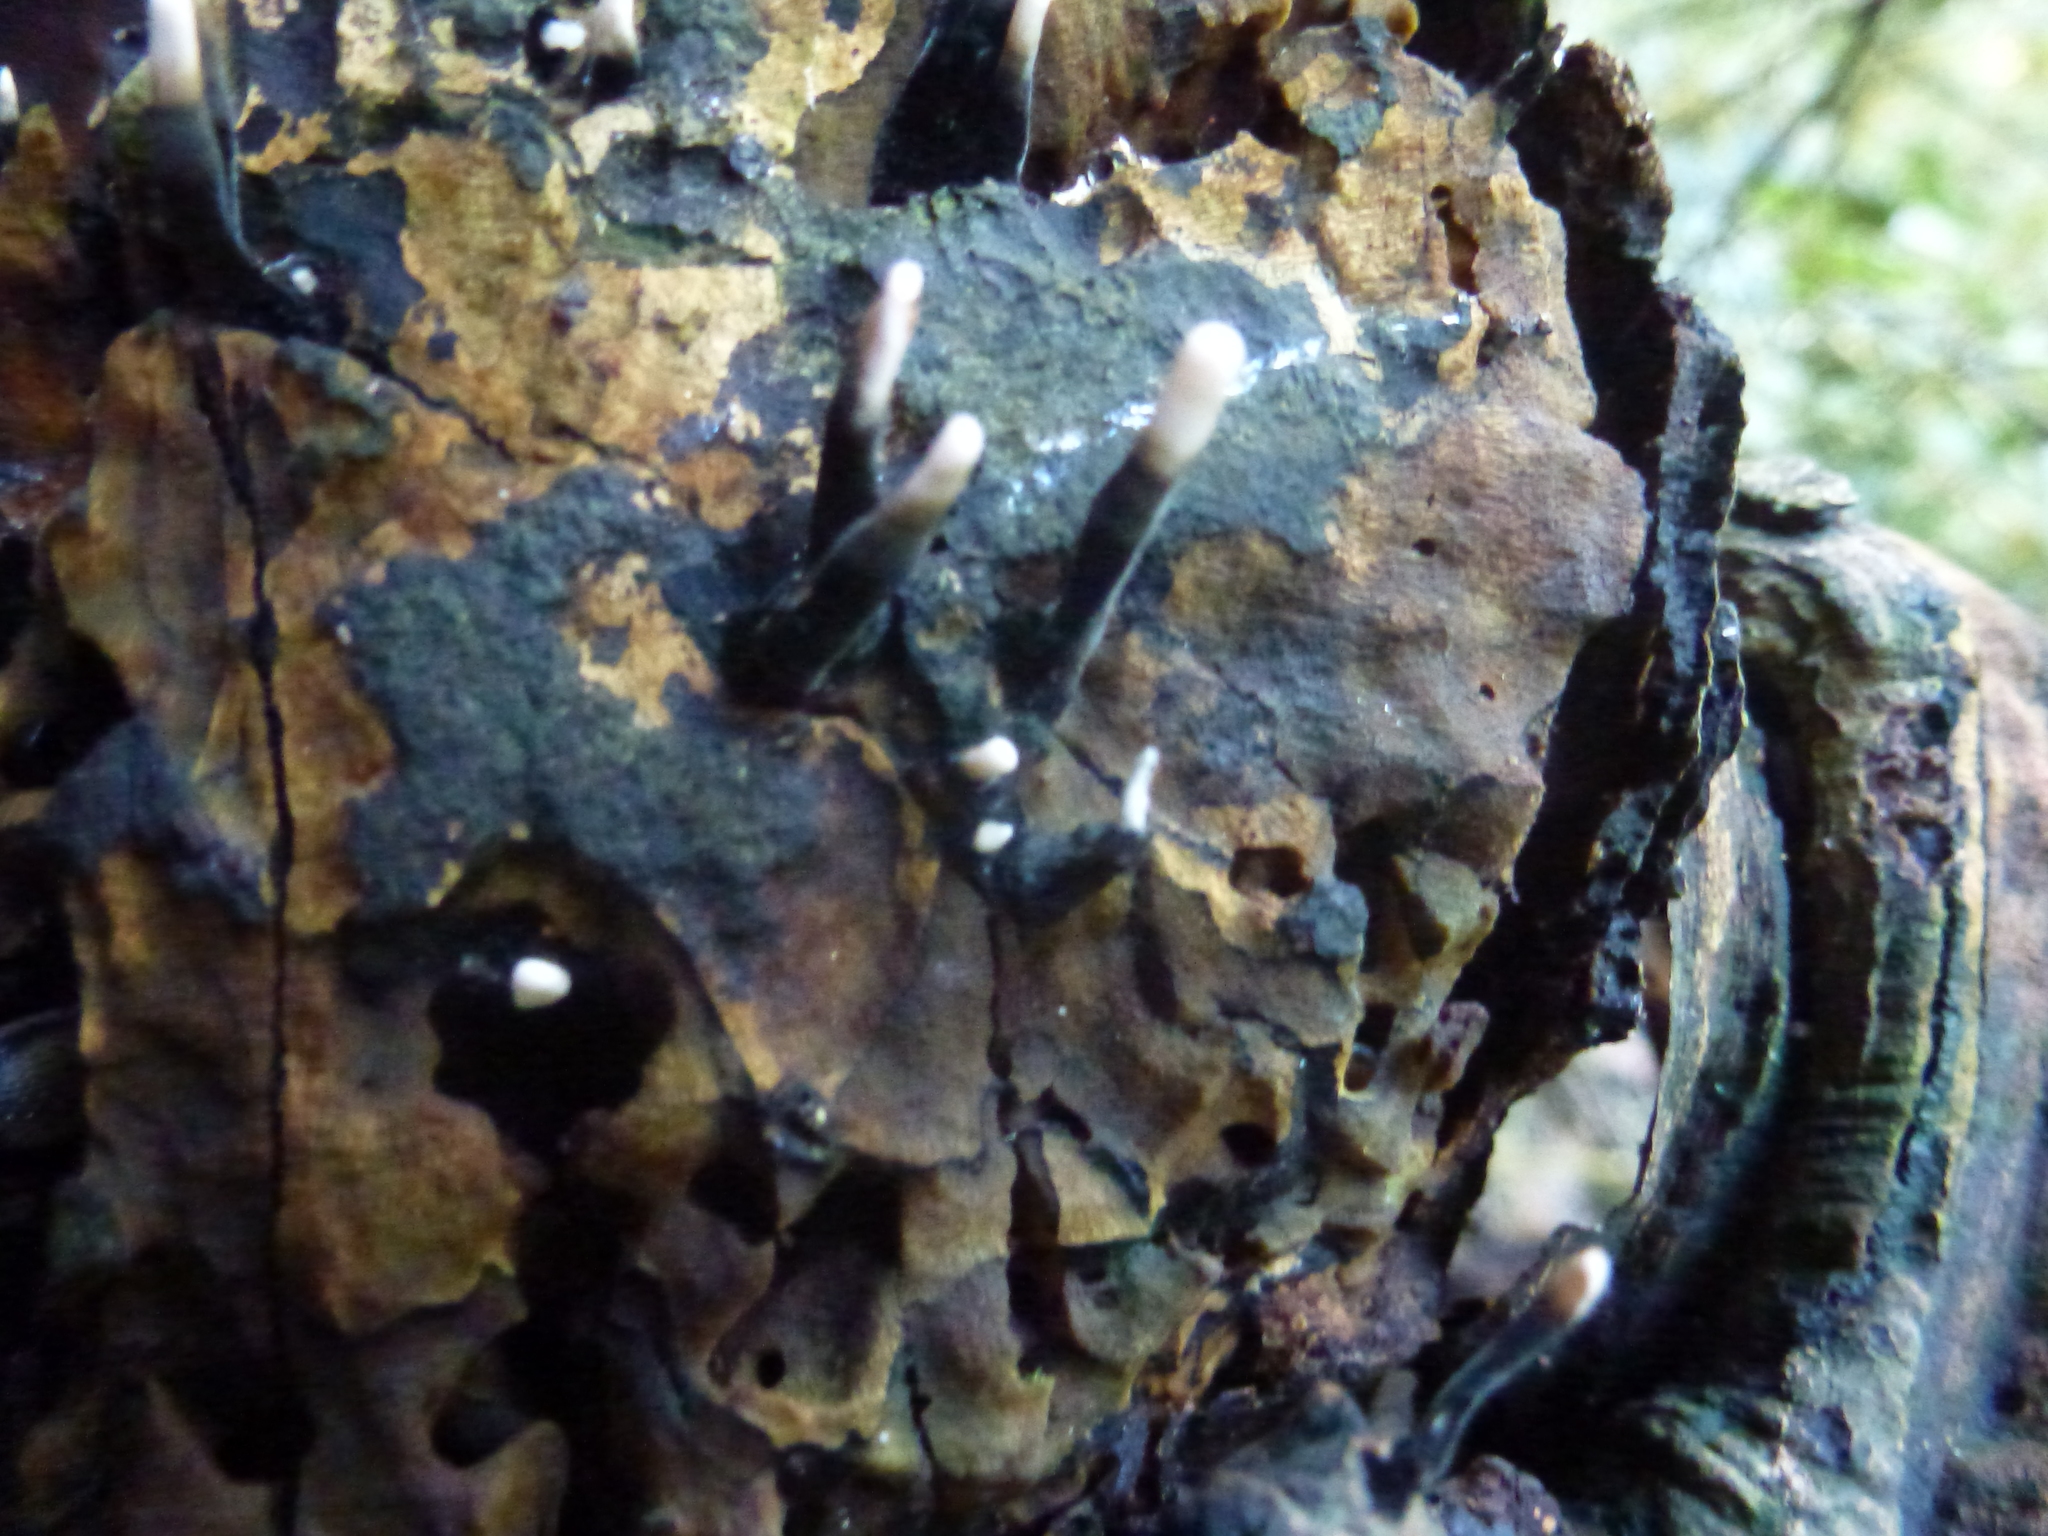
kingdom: Fungi
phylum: Ascomycota
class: Sordariomycetes
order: Xylariales
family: Xylariaceae
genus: Xylaria
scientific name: Xylaria hypoxylon
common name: Candle-snuff fungus
